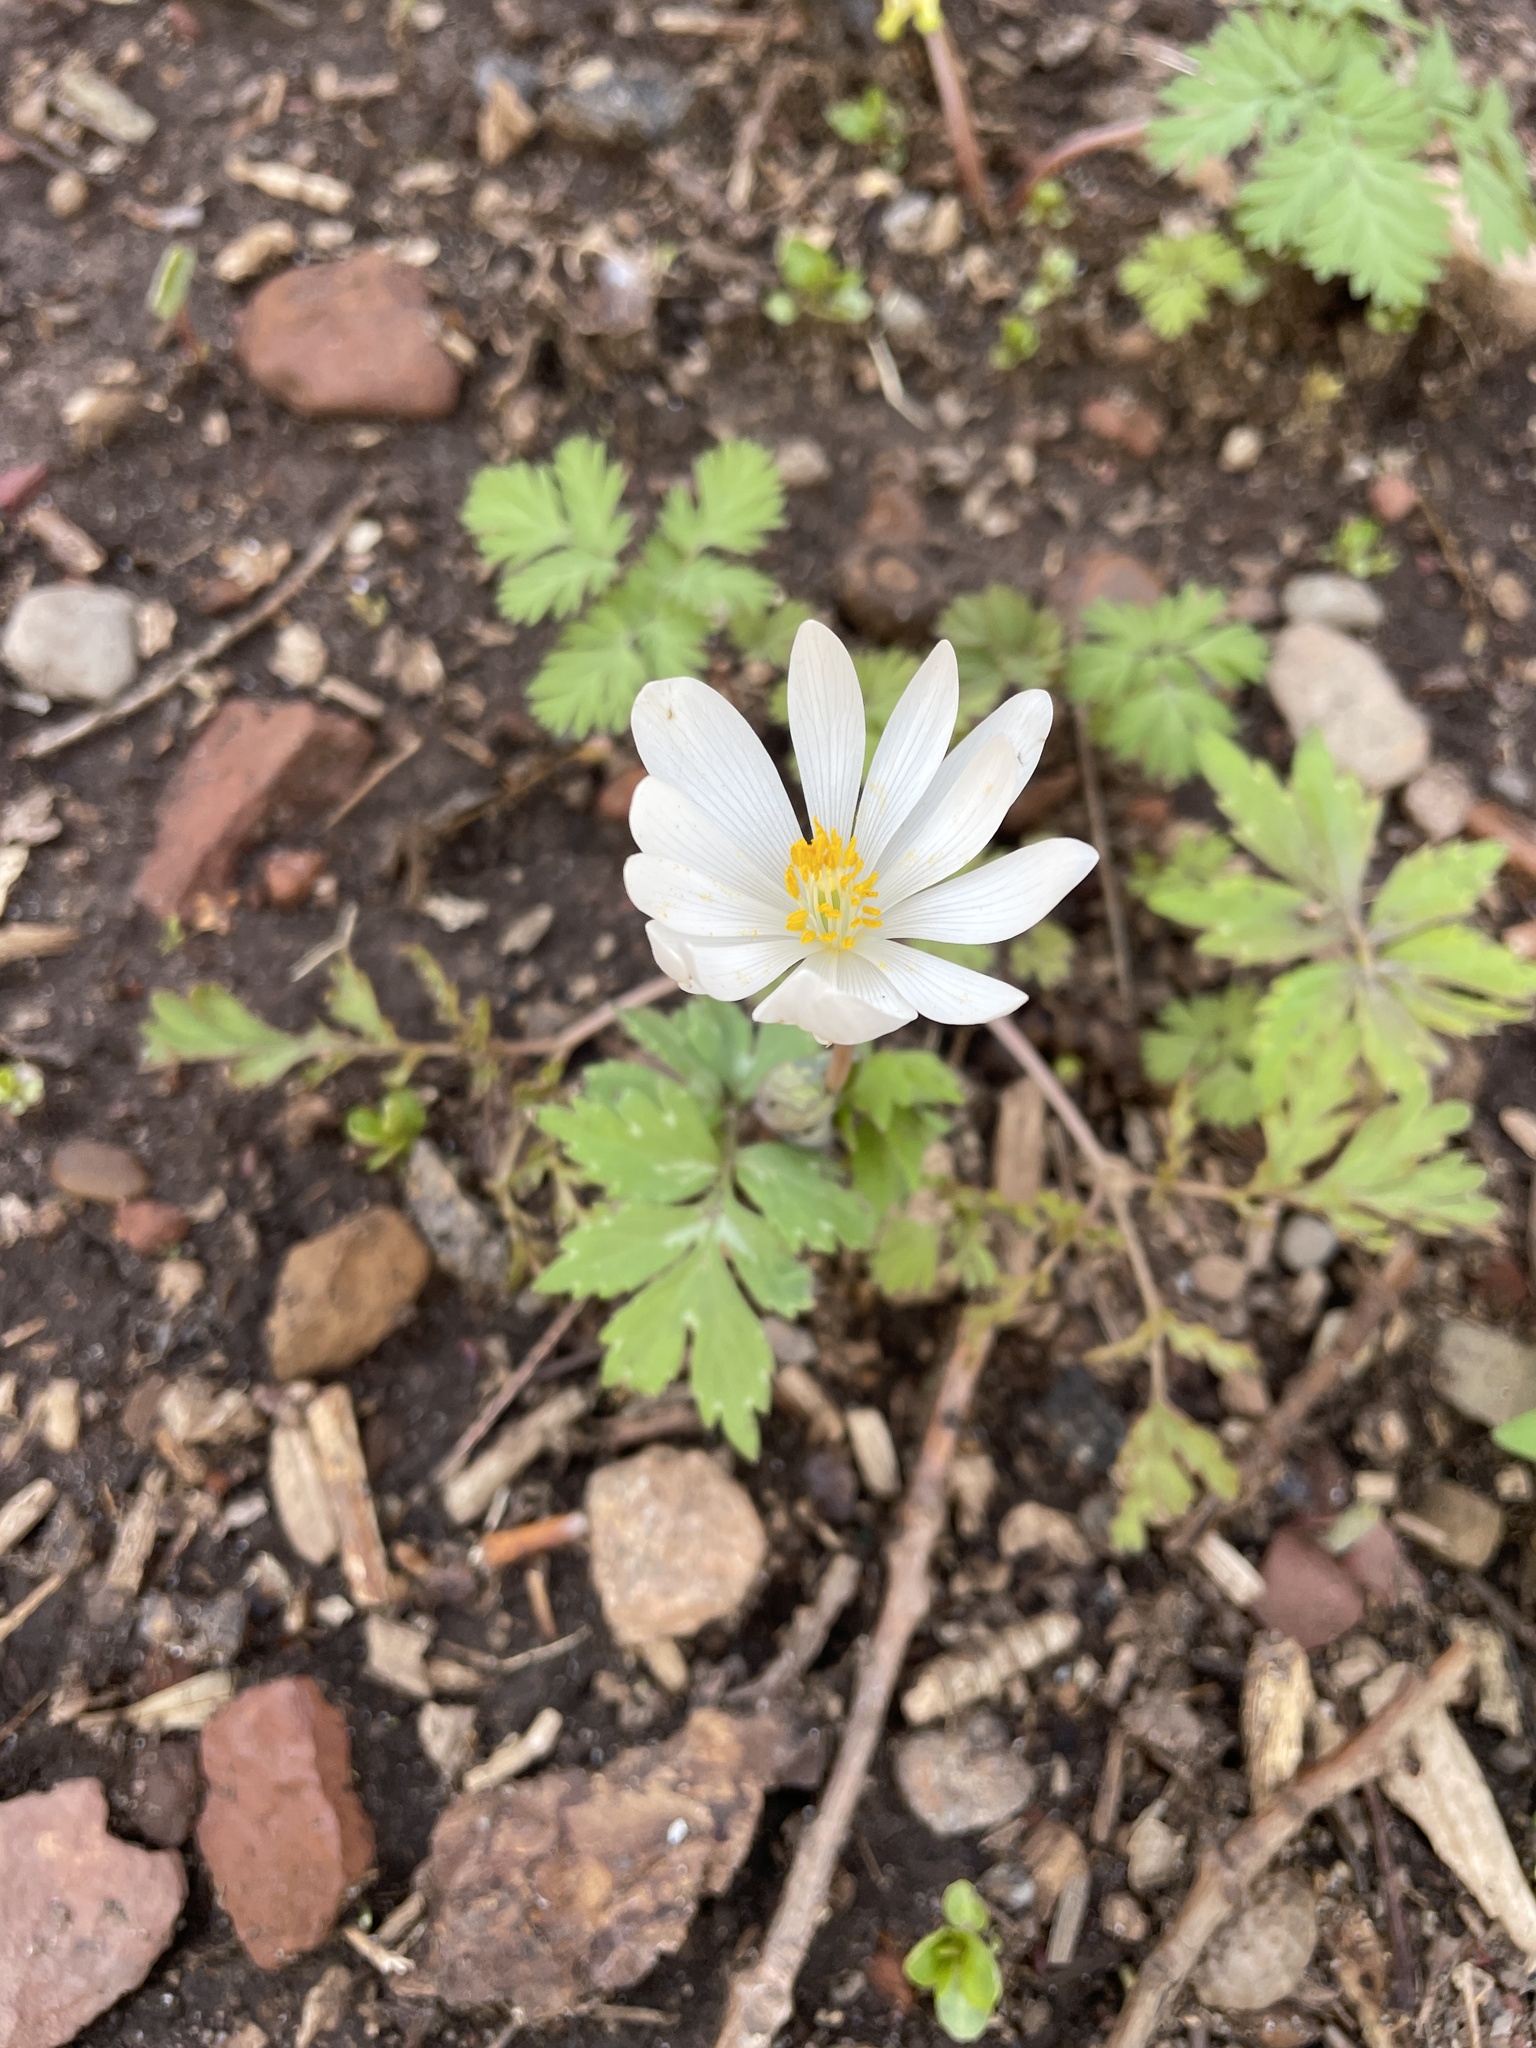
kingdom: Plantae
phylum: Tracheophyta
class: Magnoliopsida
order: Ranunculales
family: Papaveraceae
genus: Sanguinaria
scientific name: Sanguinaria canadensis
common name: Bloodroot
